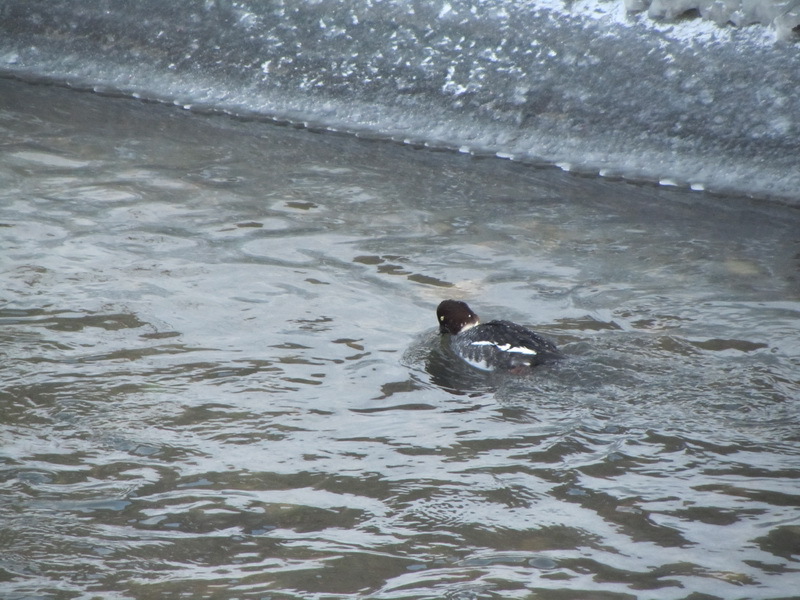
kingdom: Animalia
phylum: Chordata
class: Aves
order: Anseriformes
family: Anatidae
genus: Bucephala
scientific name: Bucephala clangula
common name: Common goldeneye
